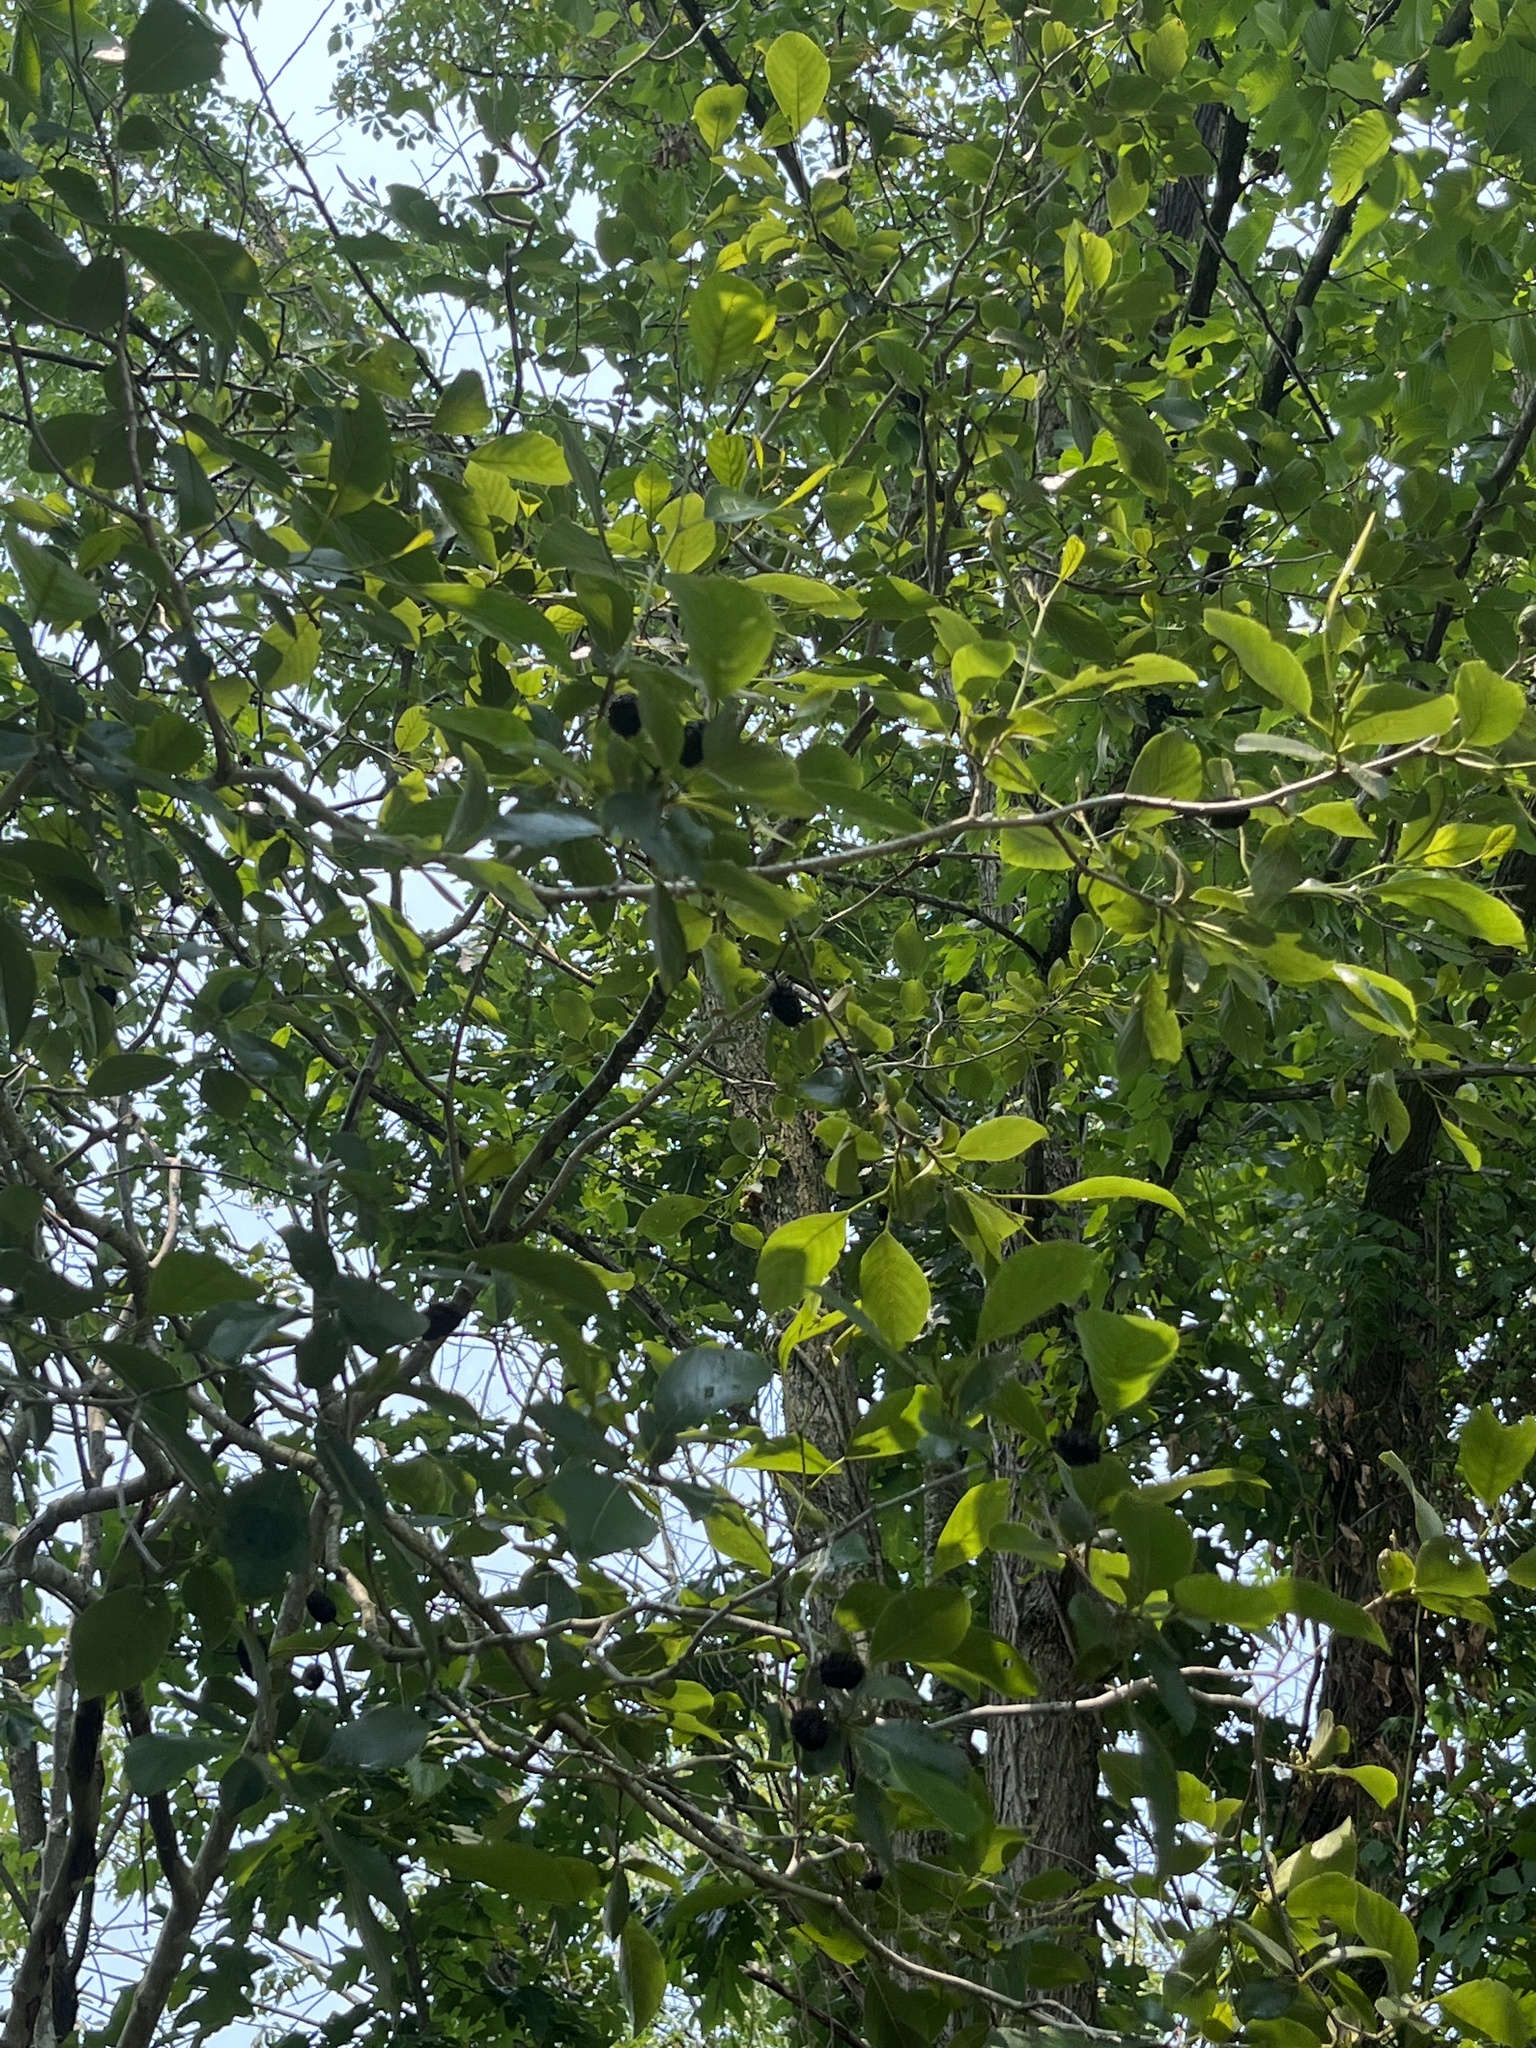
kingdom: Plantae
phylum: Tracheophyta
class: Magnoliopsida
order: Fagales
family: Betulaceae
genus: Alnus
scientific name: Alnus maritima
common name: Seaside alder
